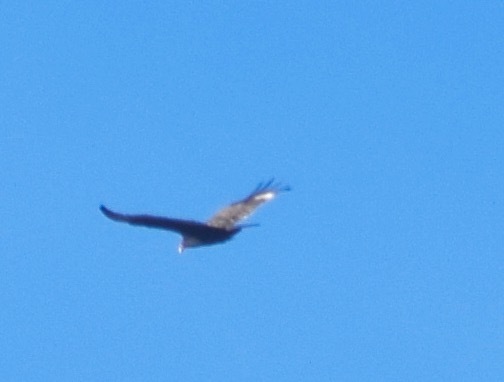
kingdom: Animalia
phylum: Chordata
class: Aves
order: Accipitriformes
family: Cathartidae
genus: Cathartes
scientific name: Cathartes aura
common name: Turkey vulture
